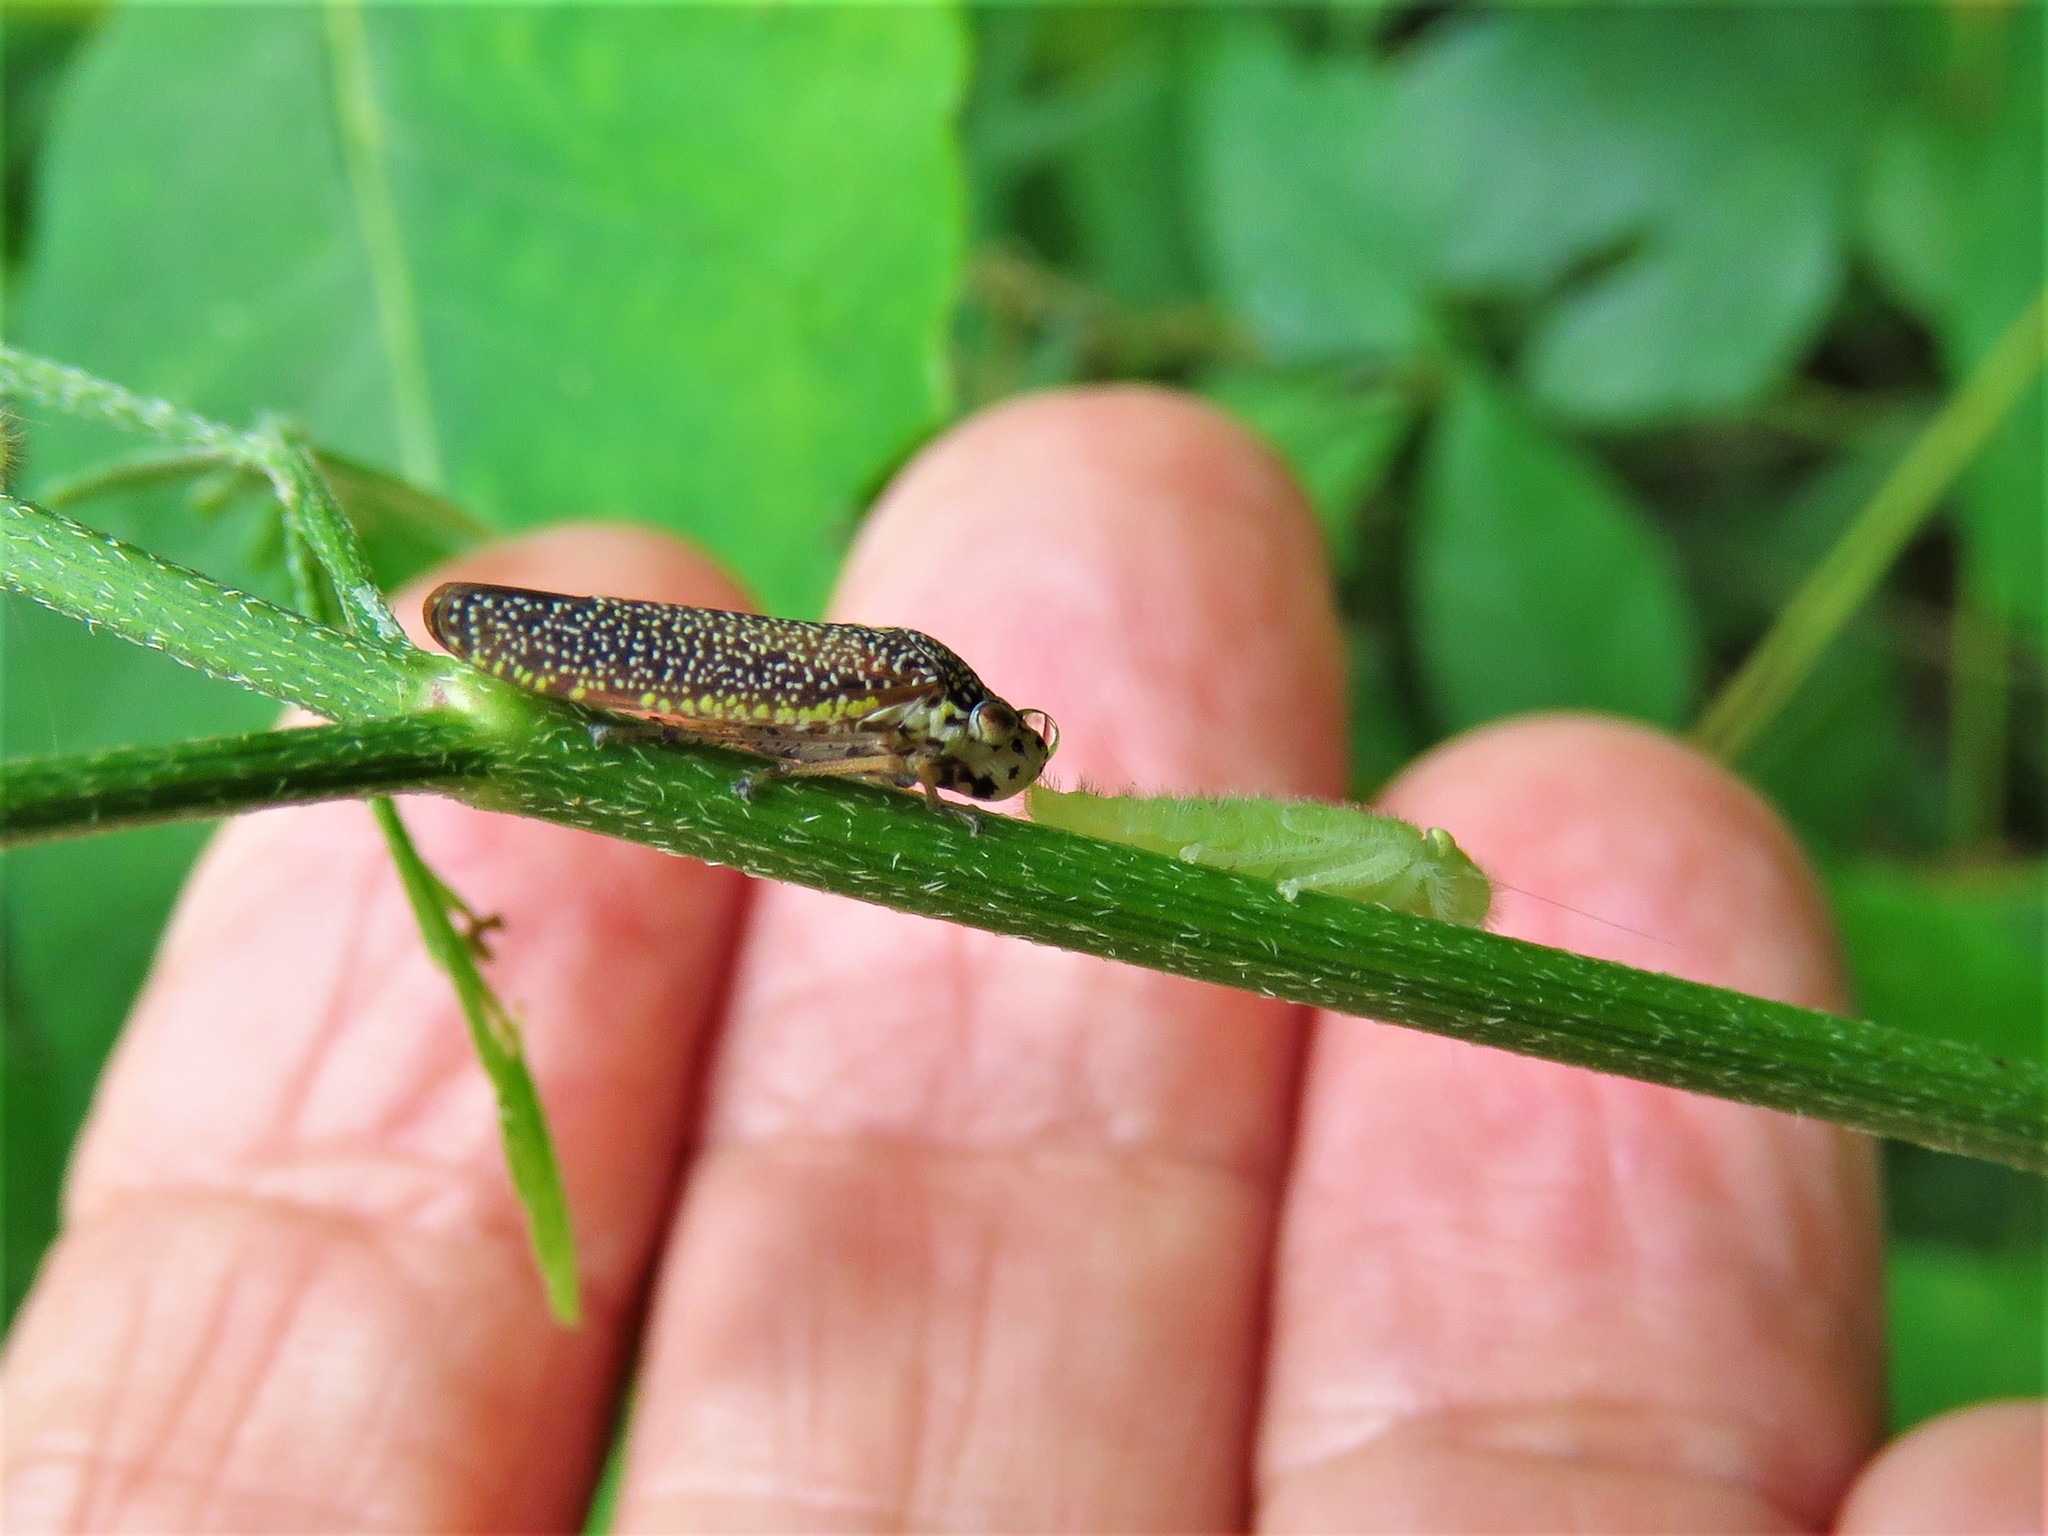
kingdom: Animalia
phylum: Arthropoda
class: Insecta
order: Hemiptera
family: Cicadellidae
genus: Paraulacizes
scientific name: Paraulacizes irrorata
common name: Speckled sharpshooter
